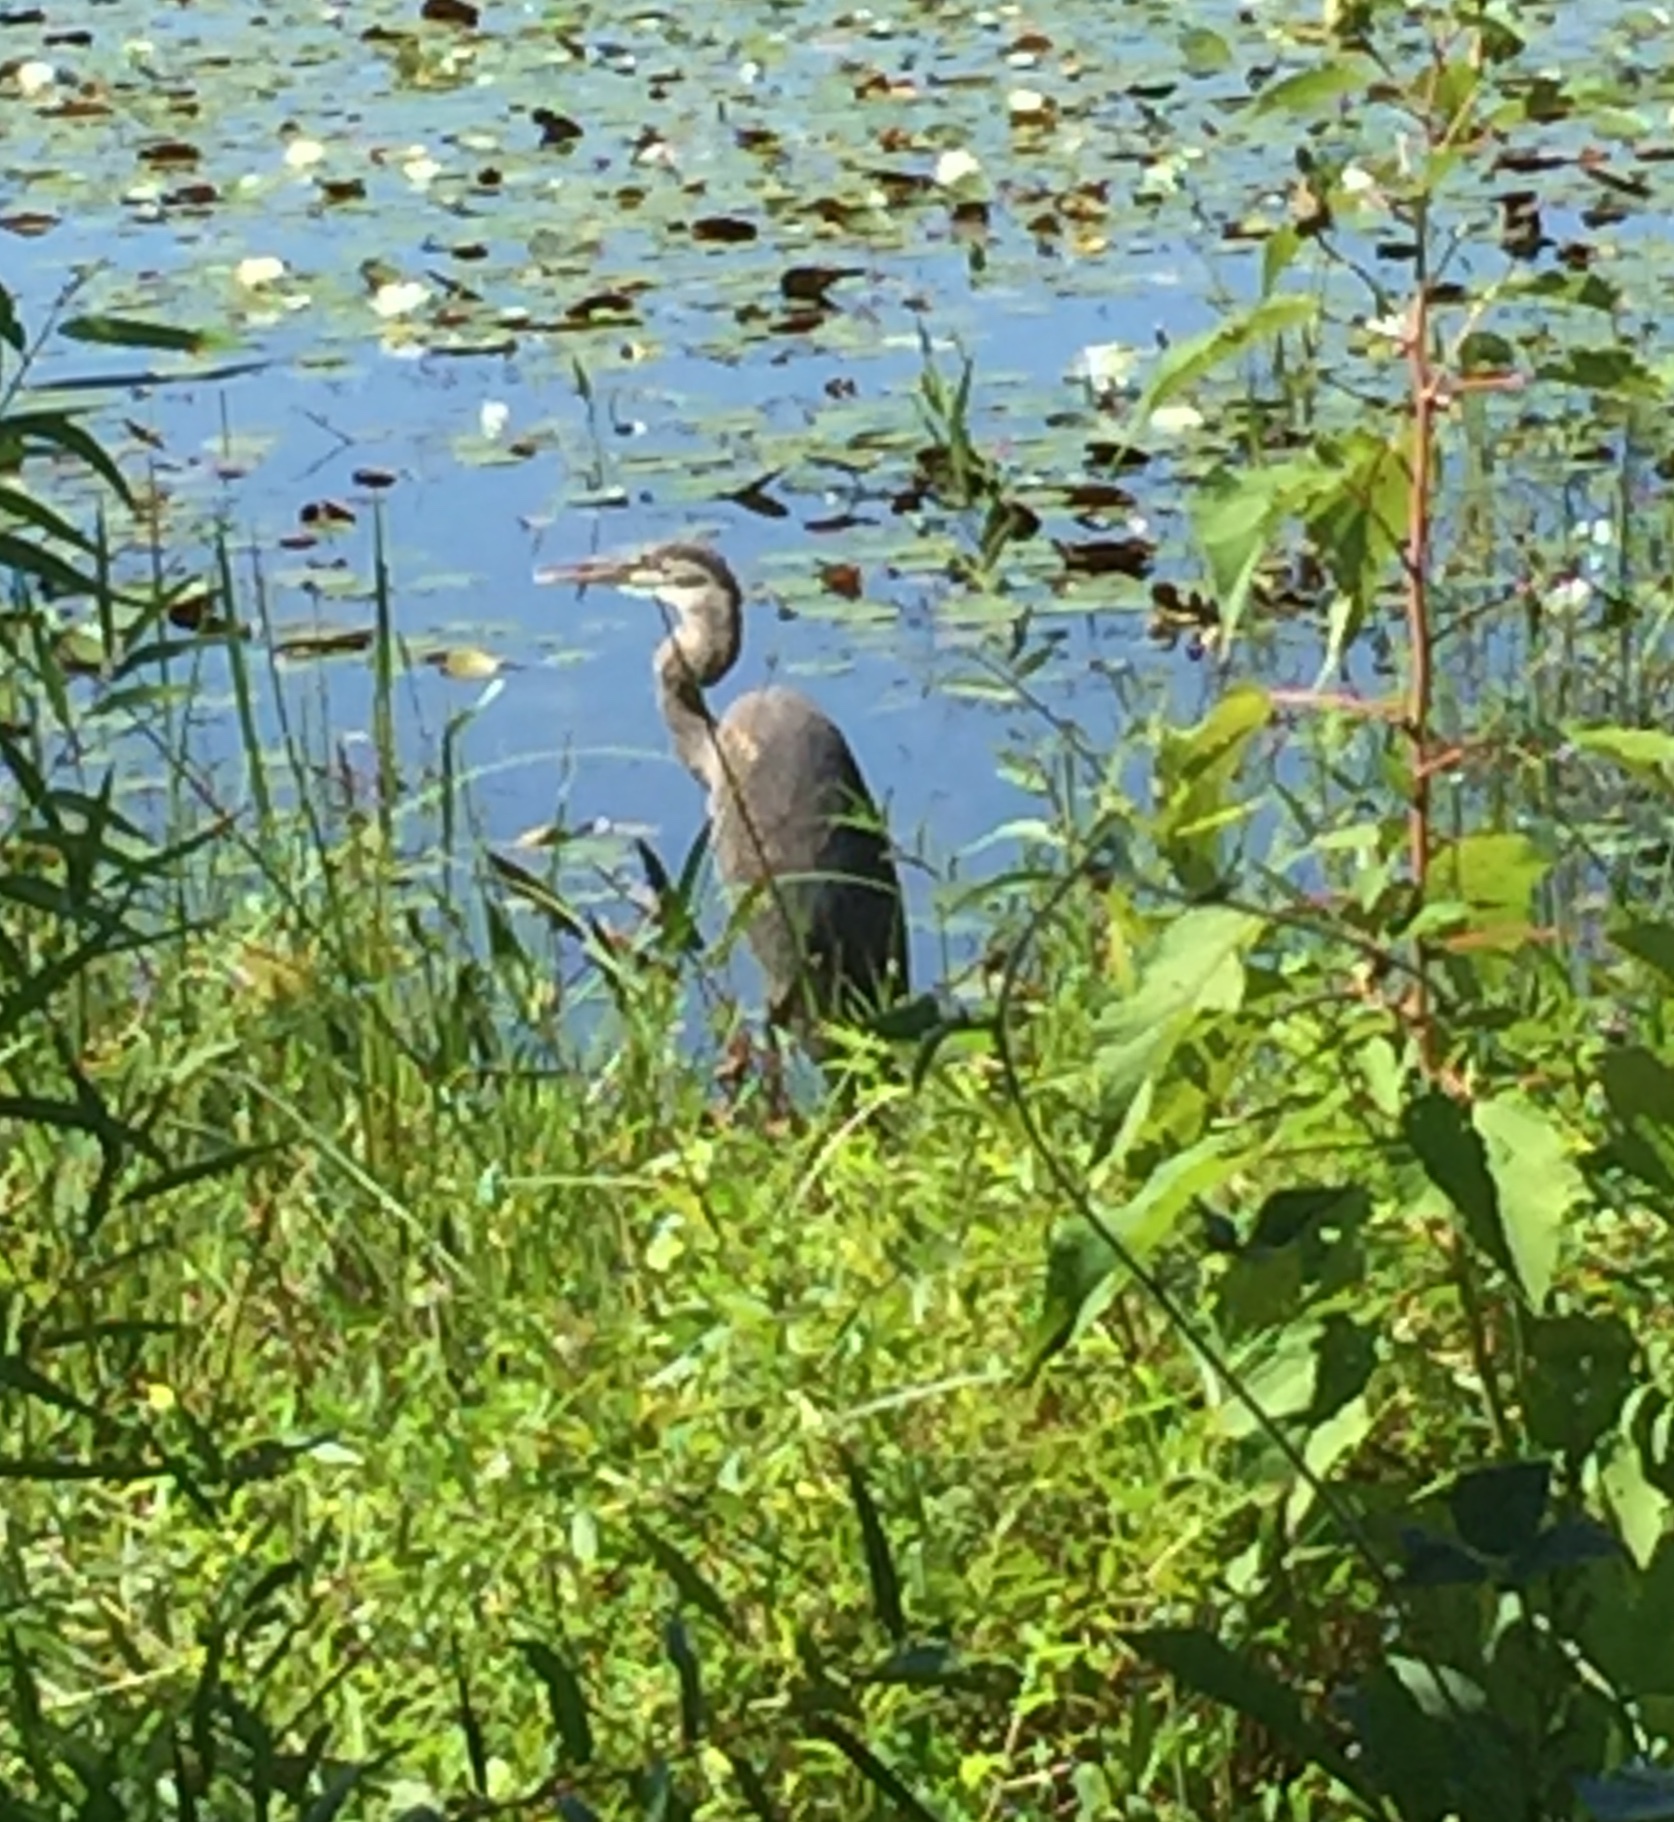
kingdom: Animalia
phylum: Chordata
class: Aves
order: Pelecaniformes
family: Ardeidae
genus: Ardea
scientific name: Ardea herodias
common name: Great blue heron
